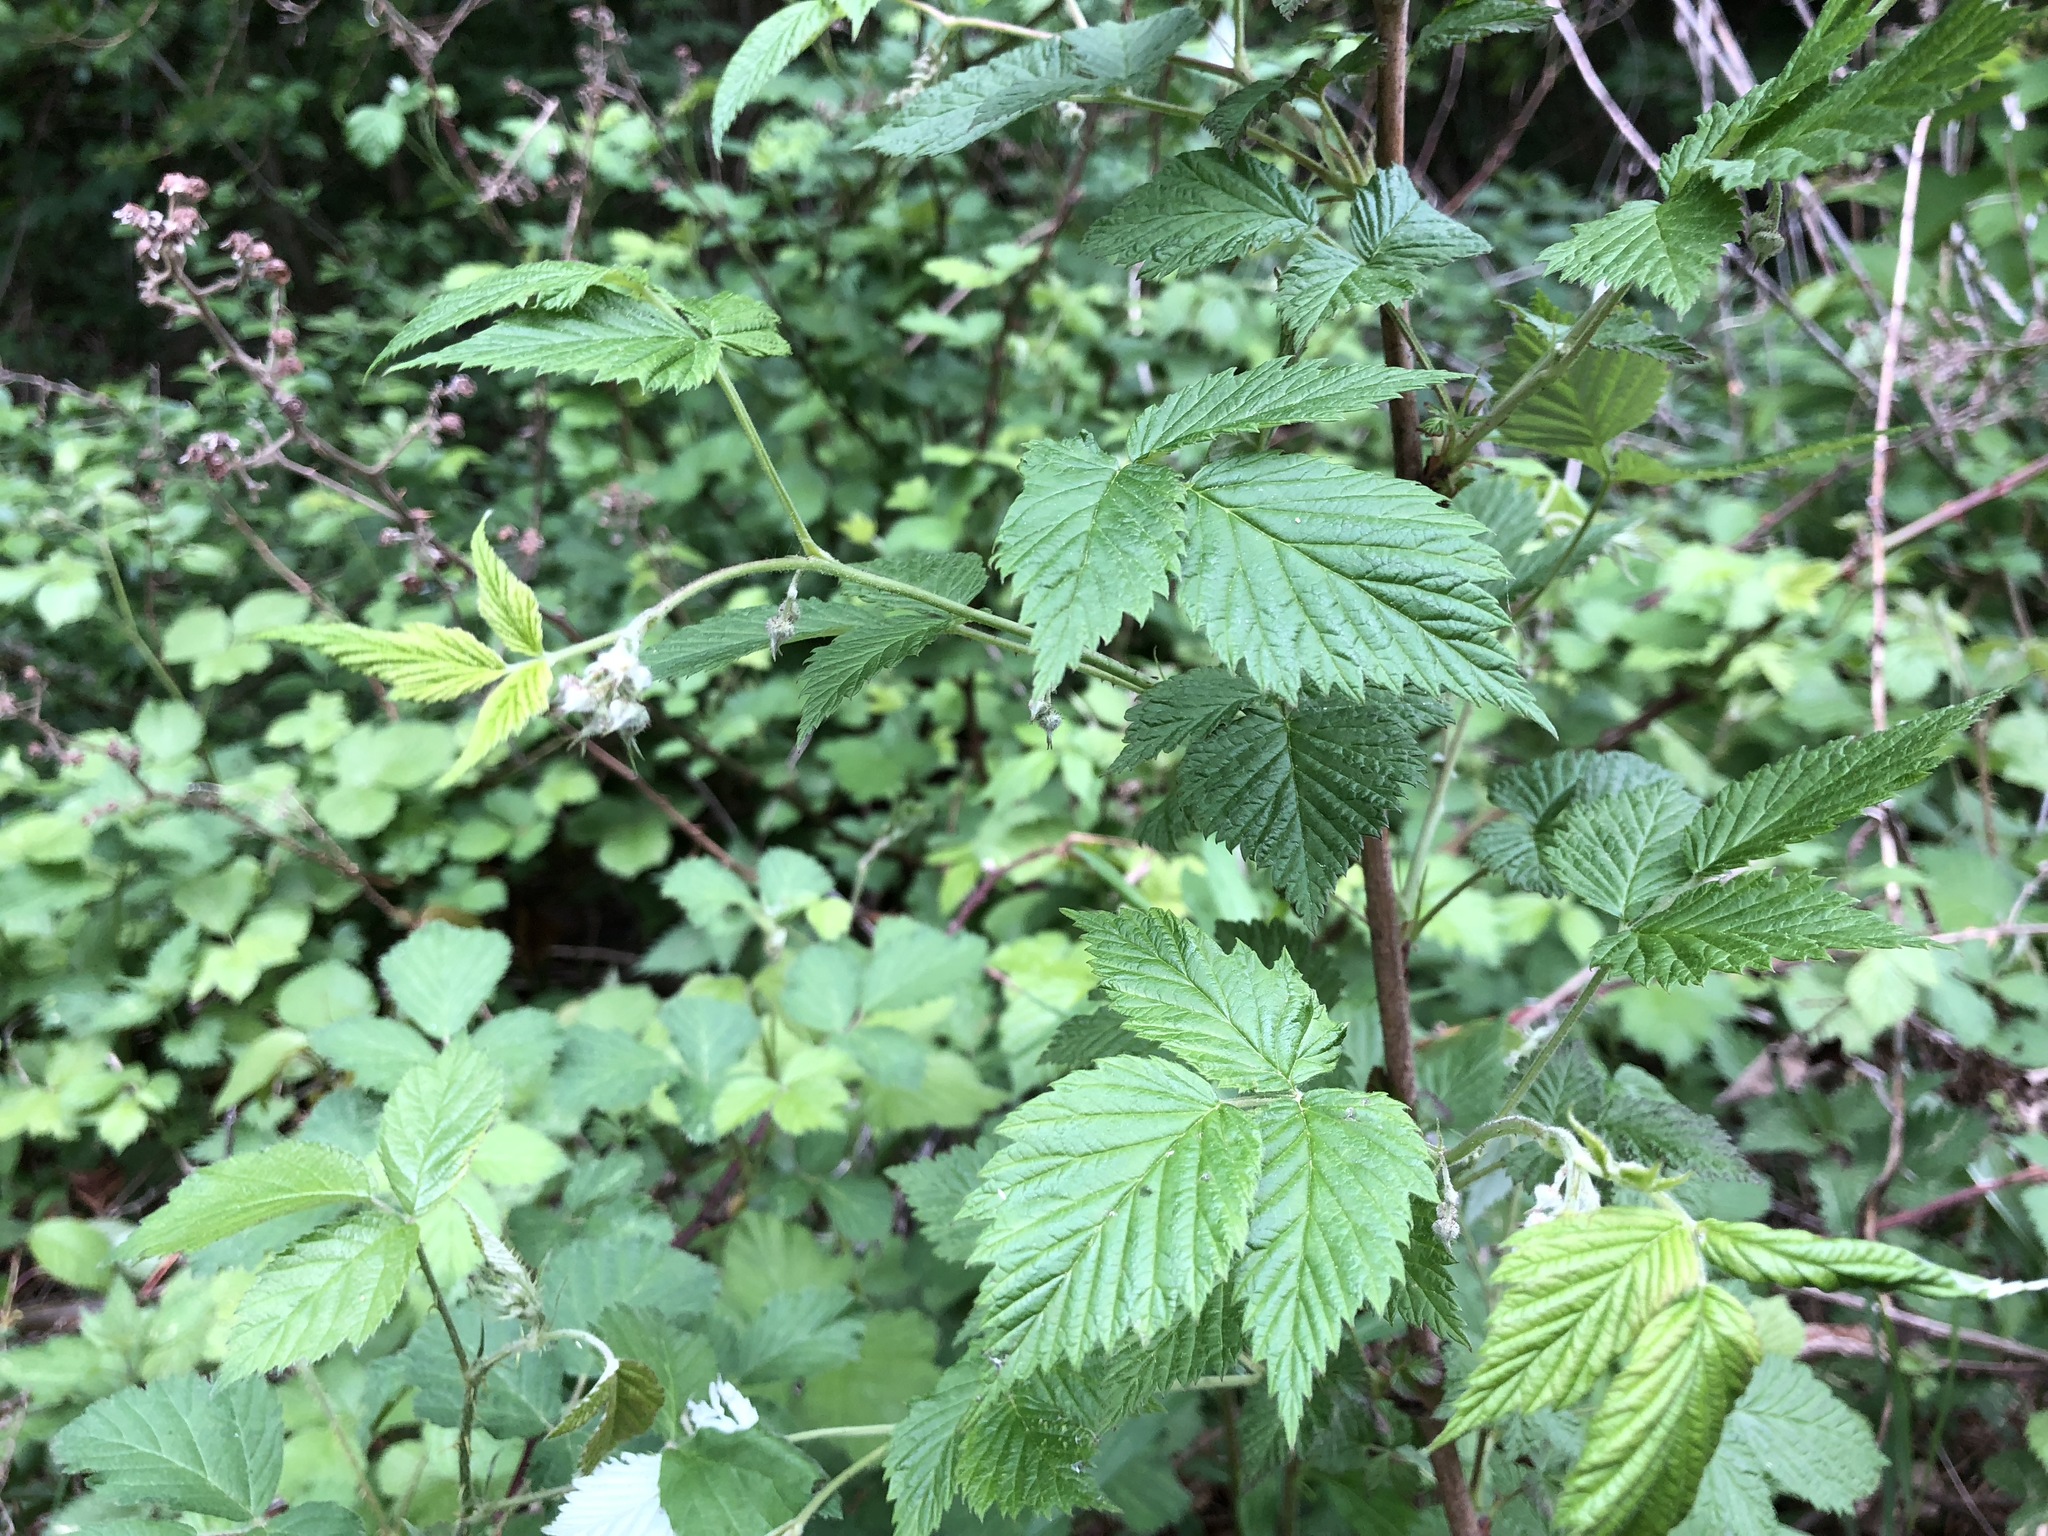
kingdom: Plantae
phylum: Tracheophyta
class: Magnoliopsida
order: Rosales
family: Rosaceae
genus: Rubus
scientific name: Rubus idaeus
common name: Raspberry
